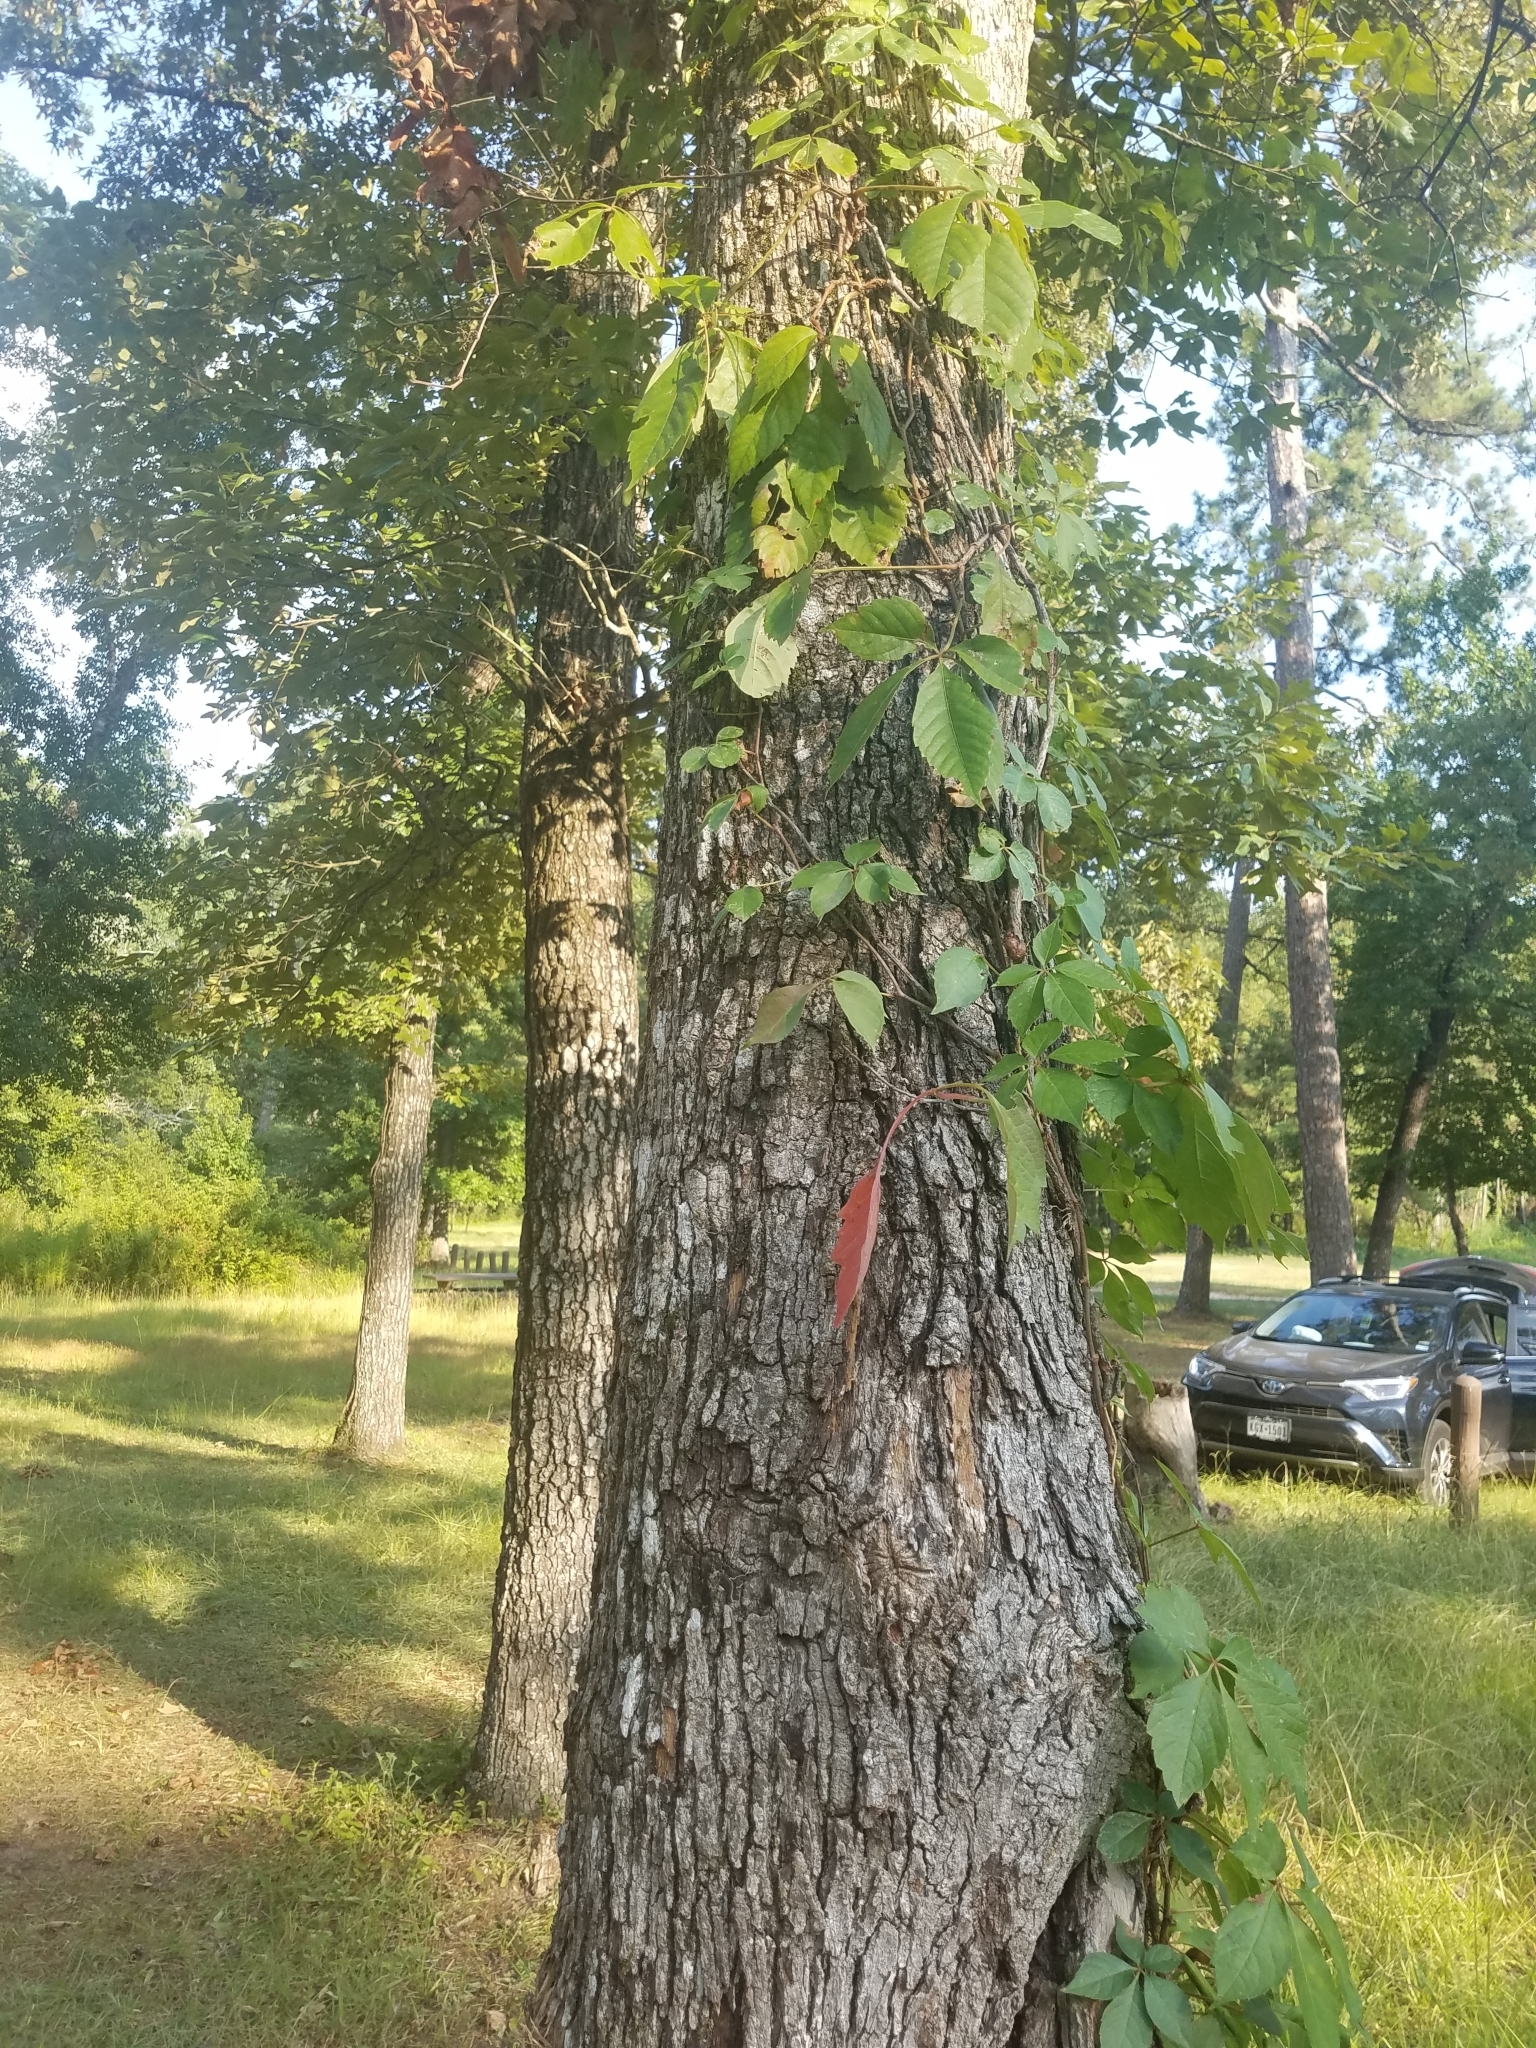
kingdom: Plantae
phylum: Tracheophyta
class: Magnoliopsida
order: Vitales
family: Vitaceae
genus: Parthenocissus
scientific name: Parthenocissus quinquefolia
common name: Virginia-creeper
